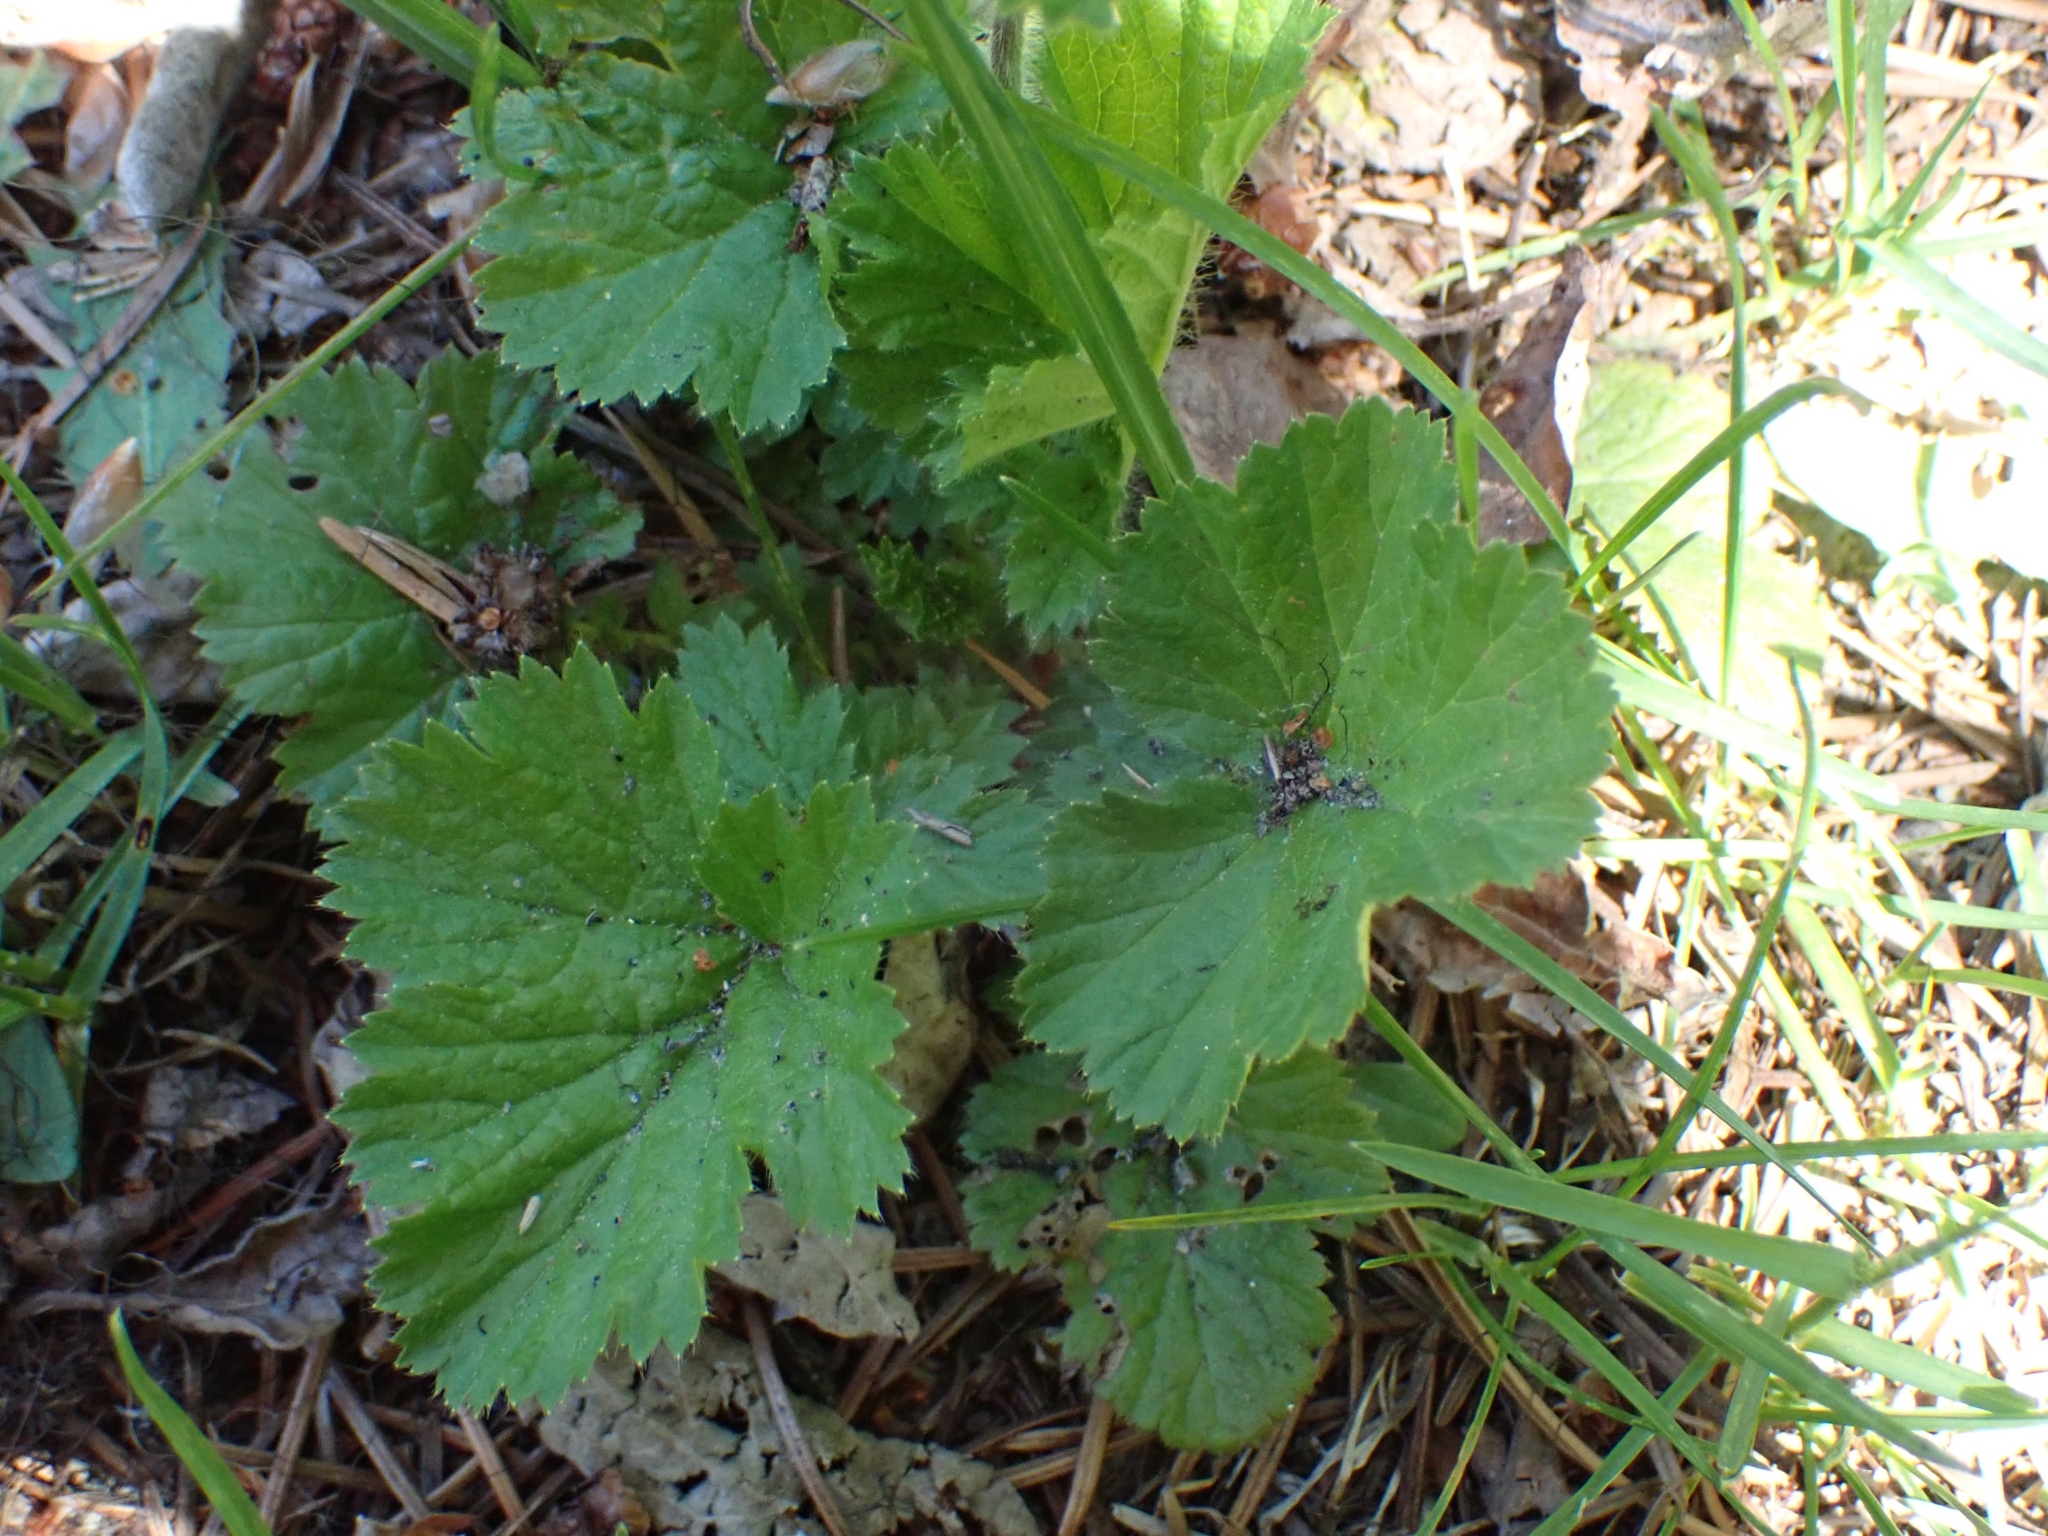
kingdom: Plantae
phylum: Tracheophyta
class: Magnoliopsida
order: Rosales
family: Rosaceae
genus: Geum
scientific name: Geum macrophyllum
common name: Large-leaved avens
